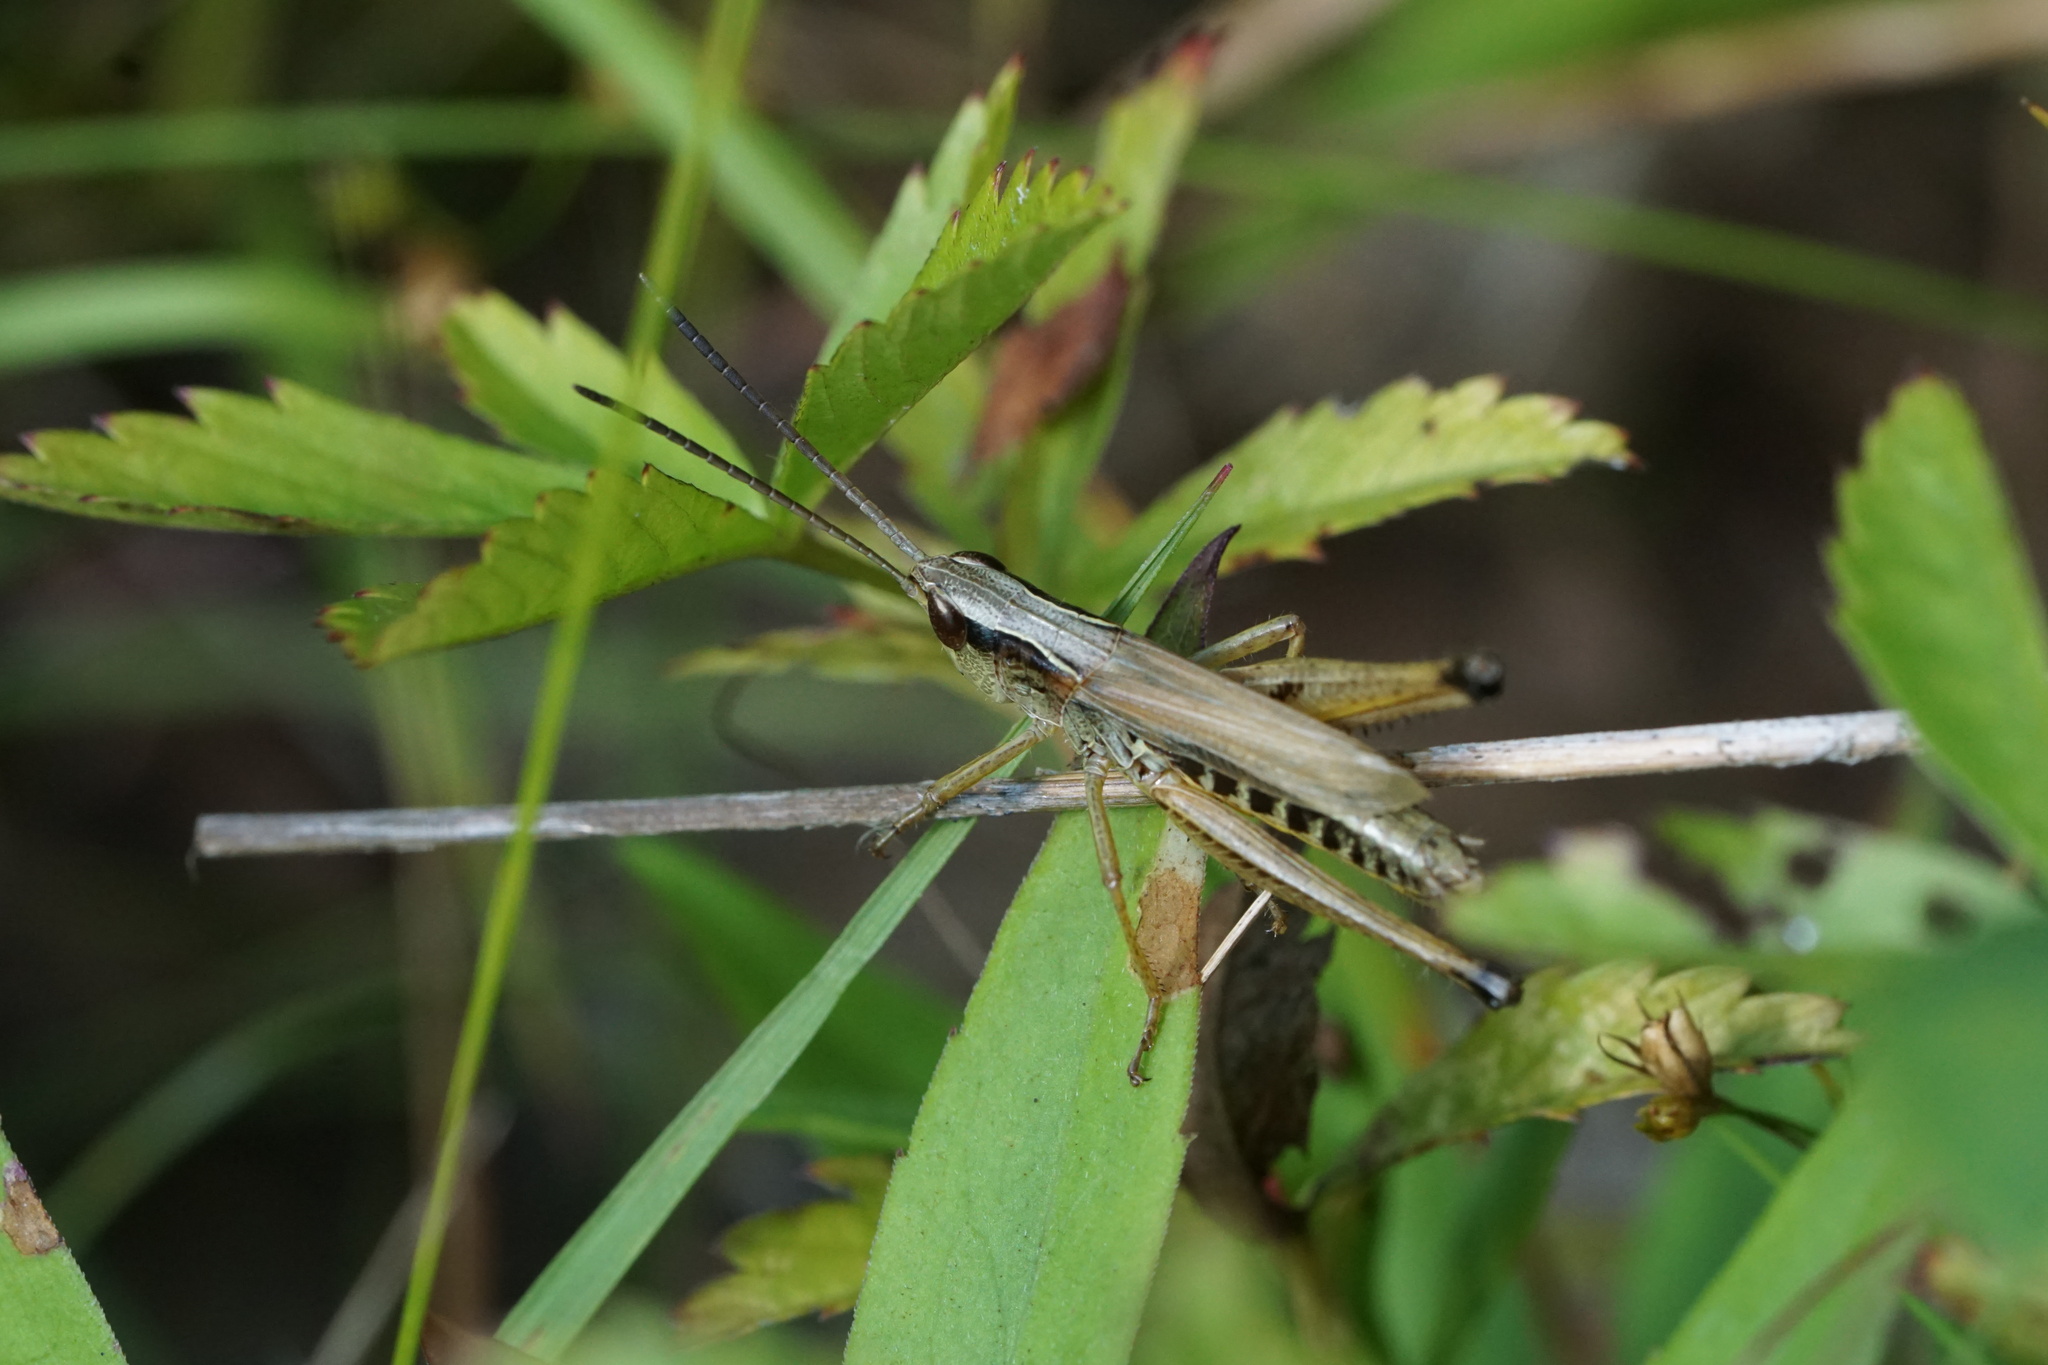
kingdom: Animalia
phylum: Arthropoda
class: Insecta
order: Orthoptera
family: Acrididae
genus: Pseudochorthippus
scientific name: Pseudochorthippus curtipennis
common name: Marsh meadow grasshopper
